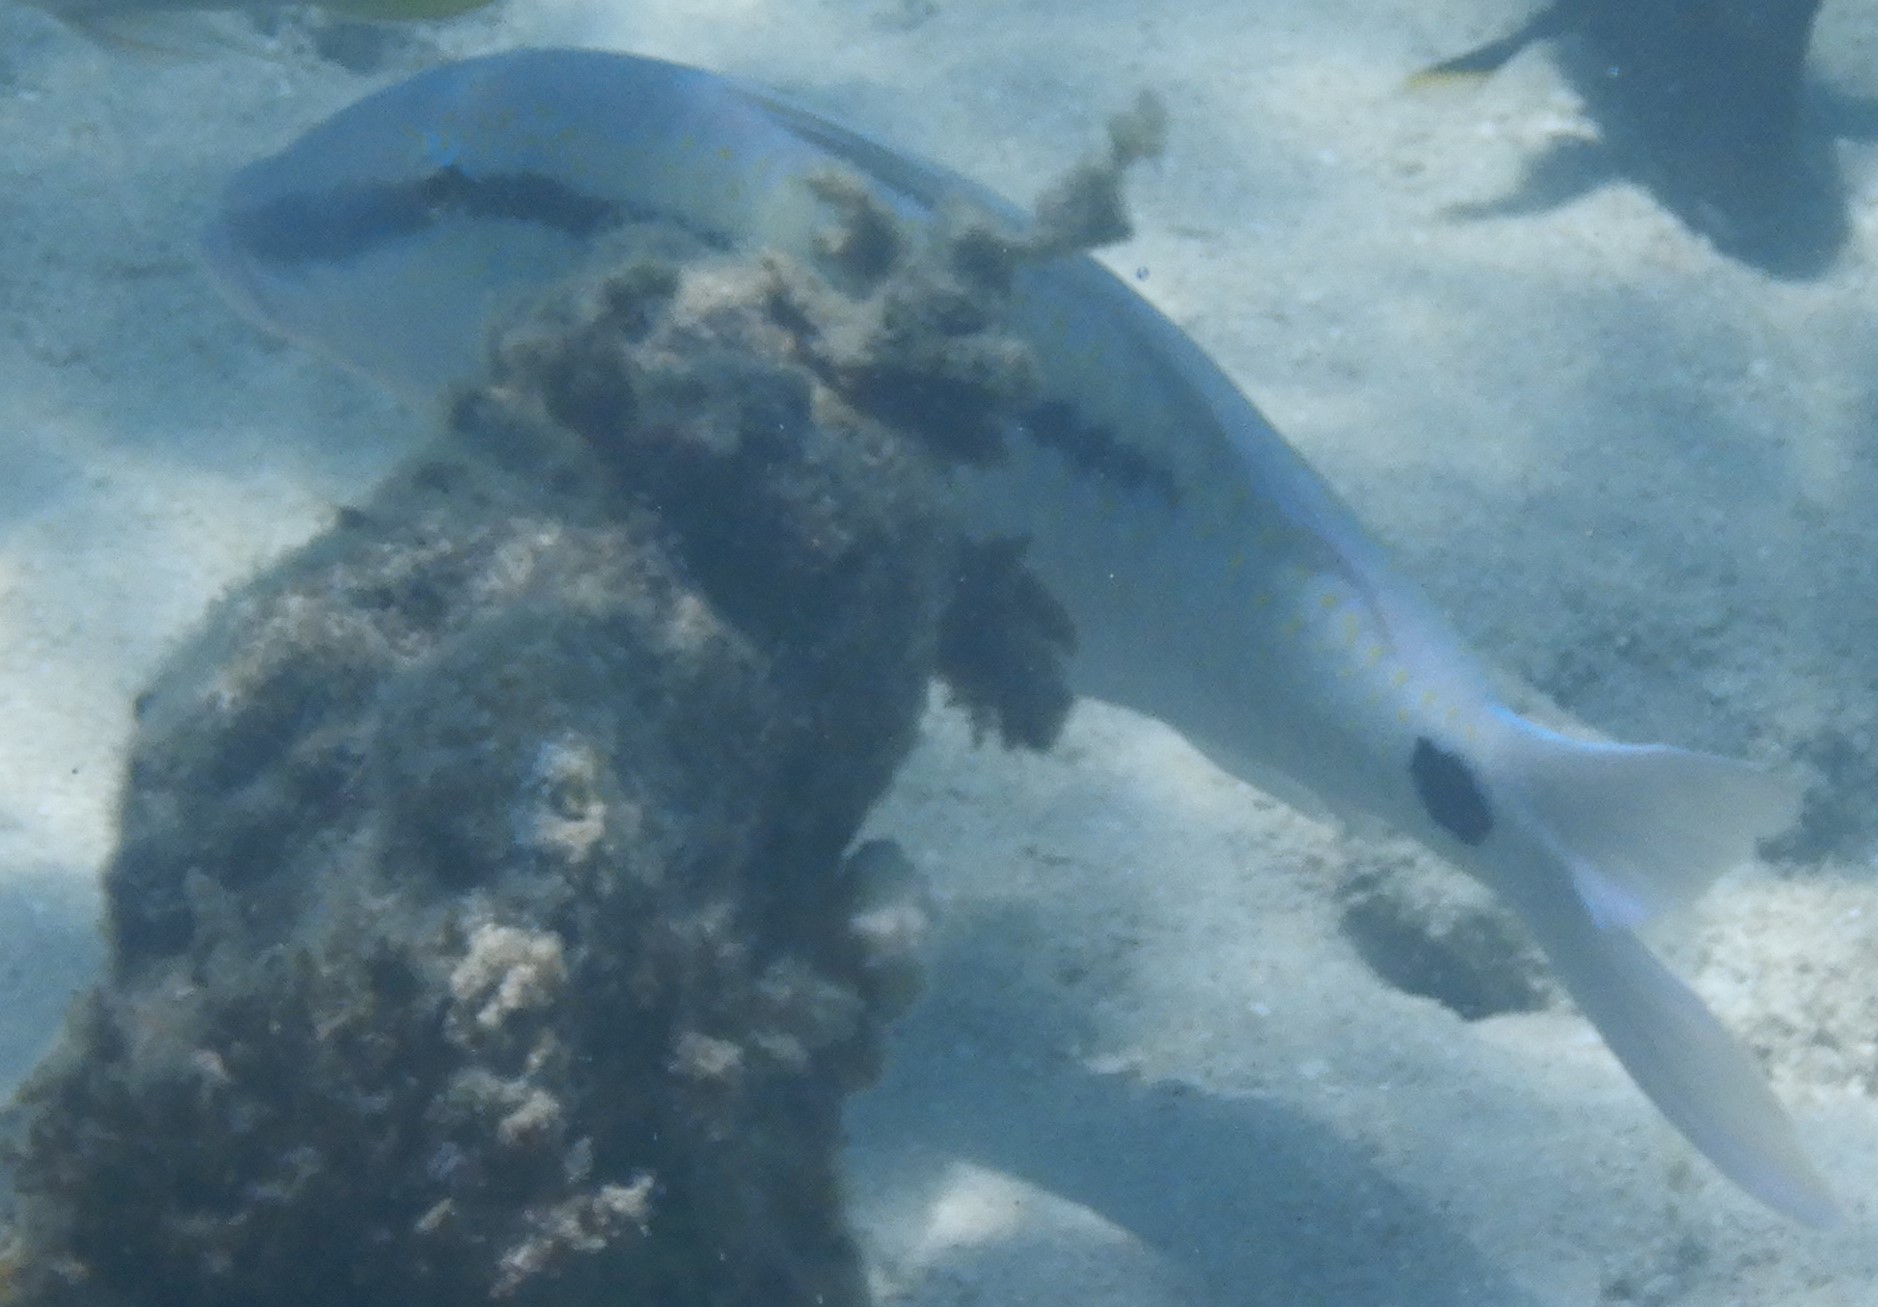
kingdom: Animalia
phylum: Chordata
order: Perciformes
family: Mullidae
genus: Parupeneus
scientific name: Parupeneus barberinus
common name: Dash-and-dot goatfish
